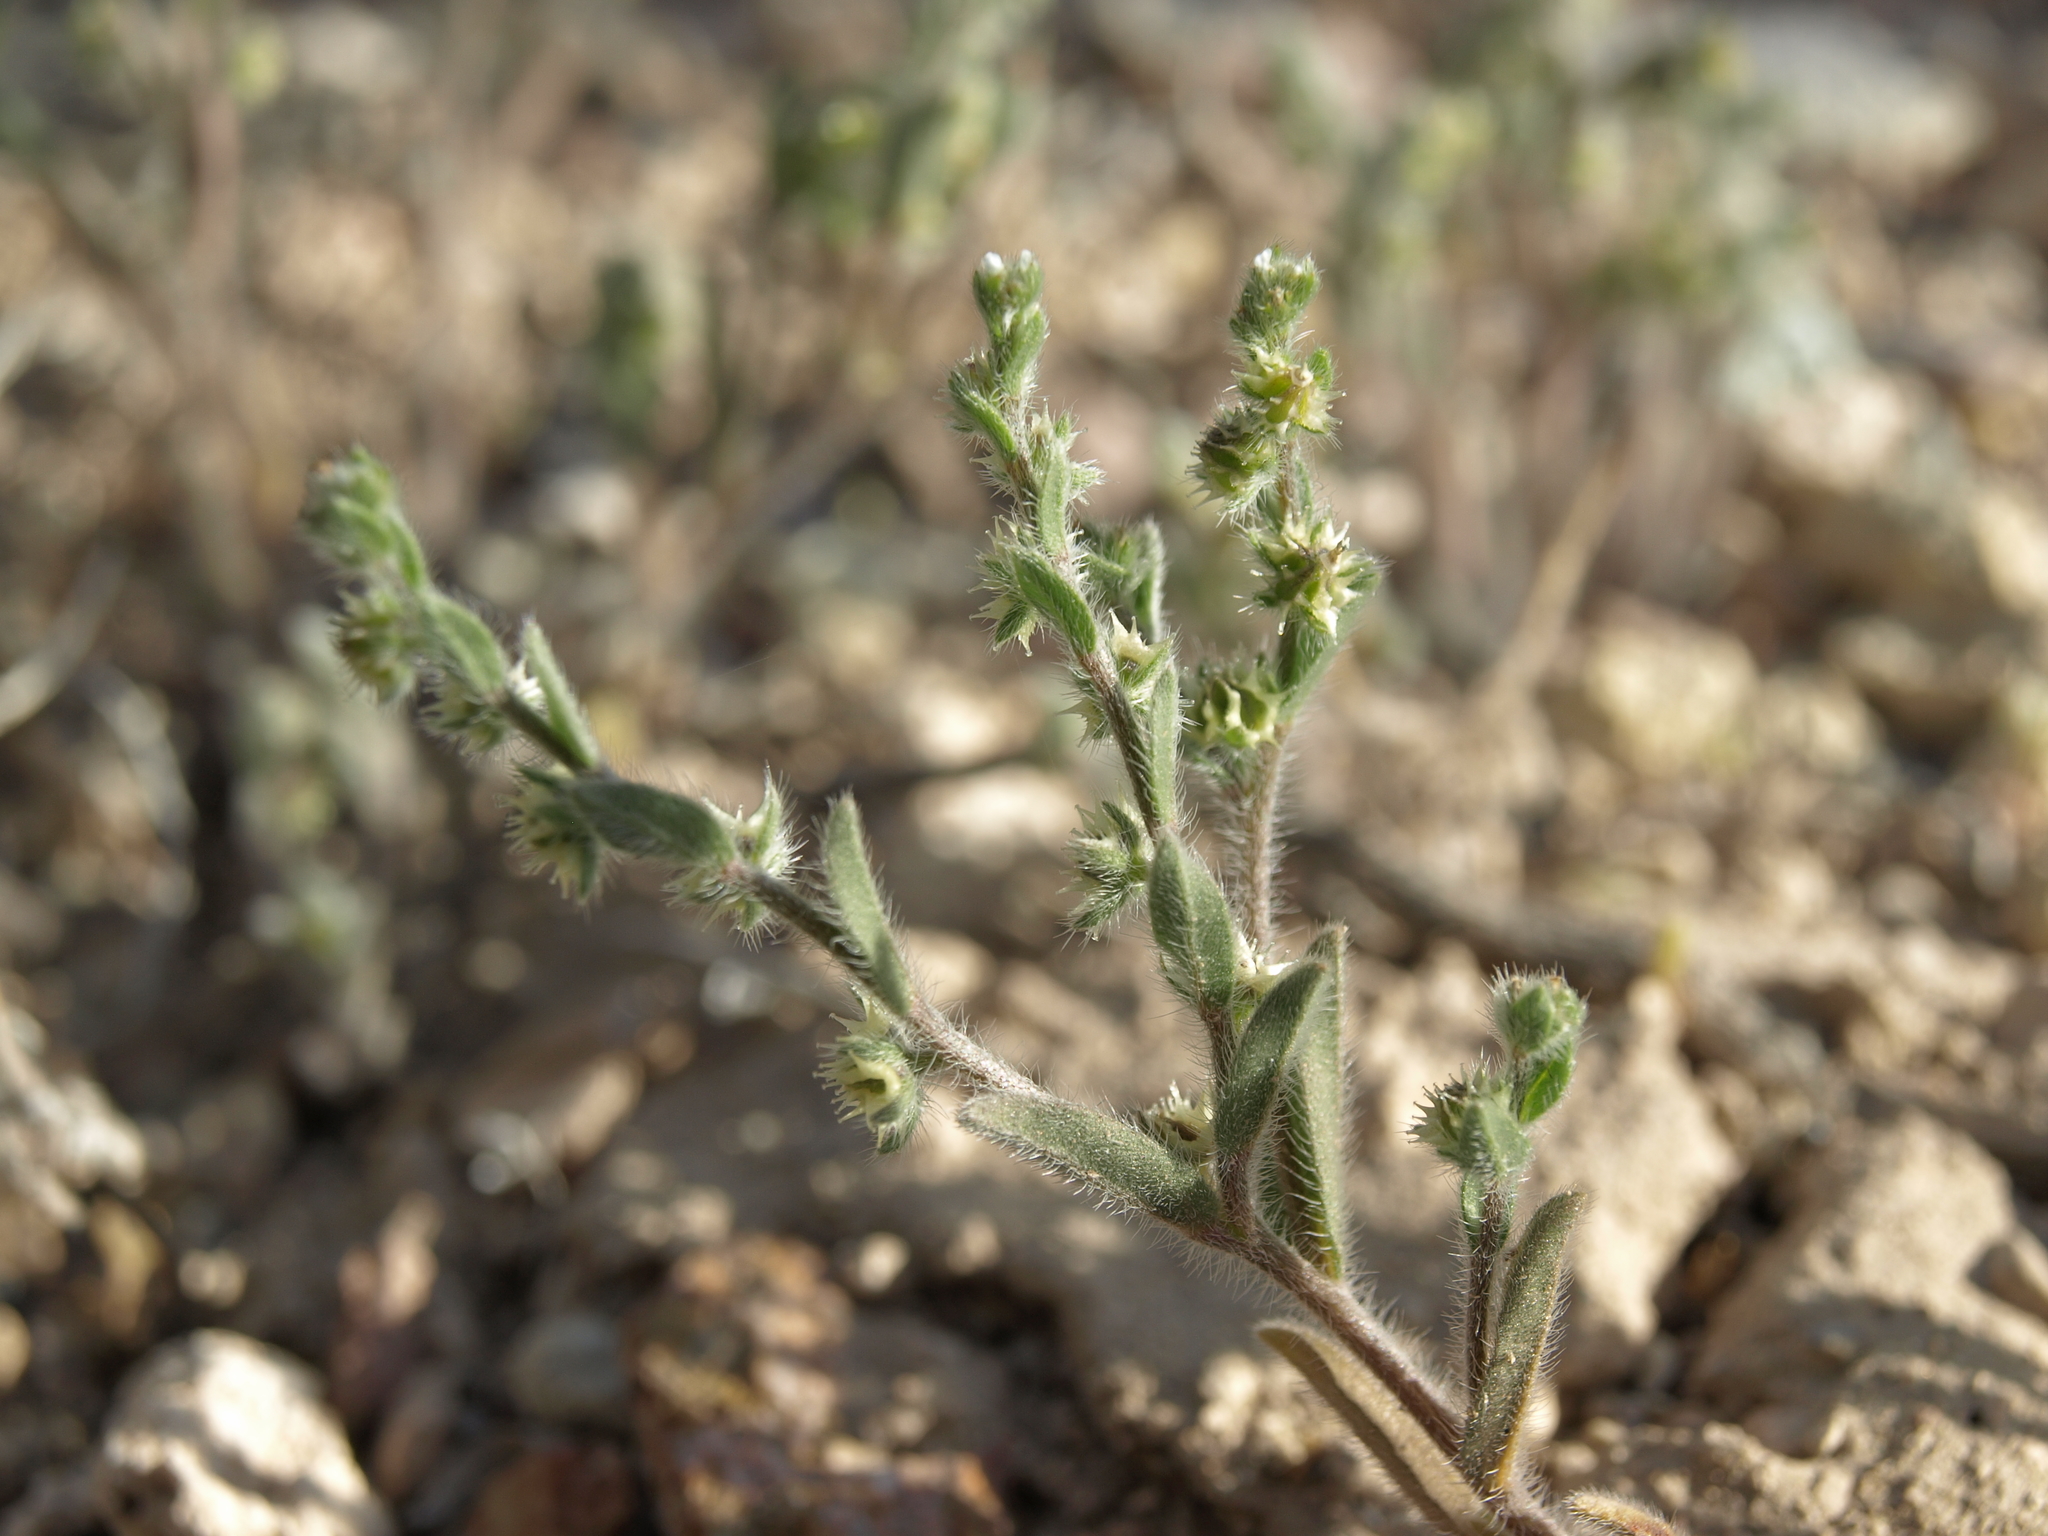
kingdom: Plantae
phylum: Tracheophyta
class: Magnoliopsida
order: Boraginales
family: Boraginaceae
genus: Lappula
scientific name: Lappula occidentalis
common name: Western stickseed
